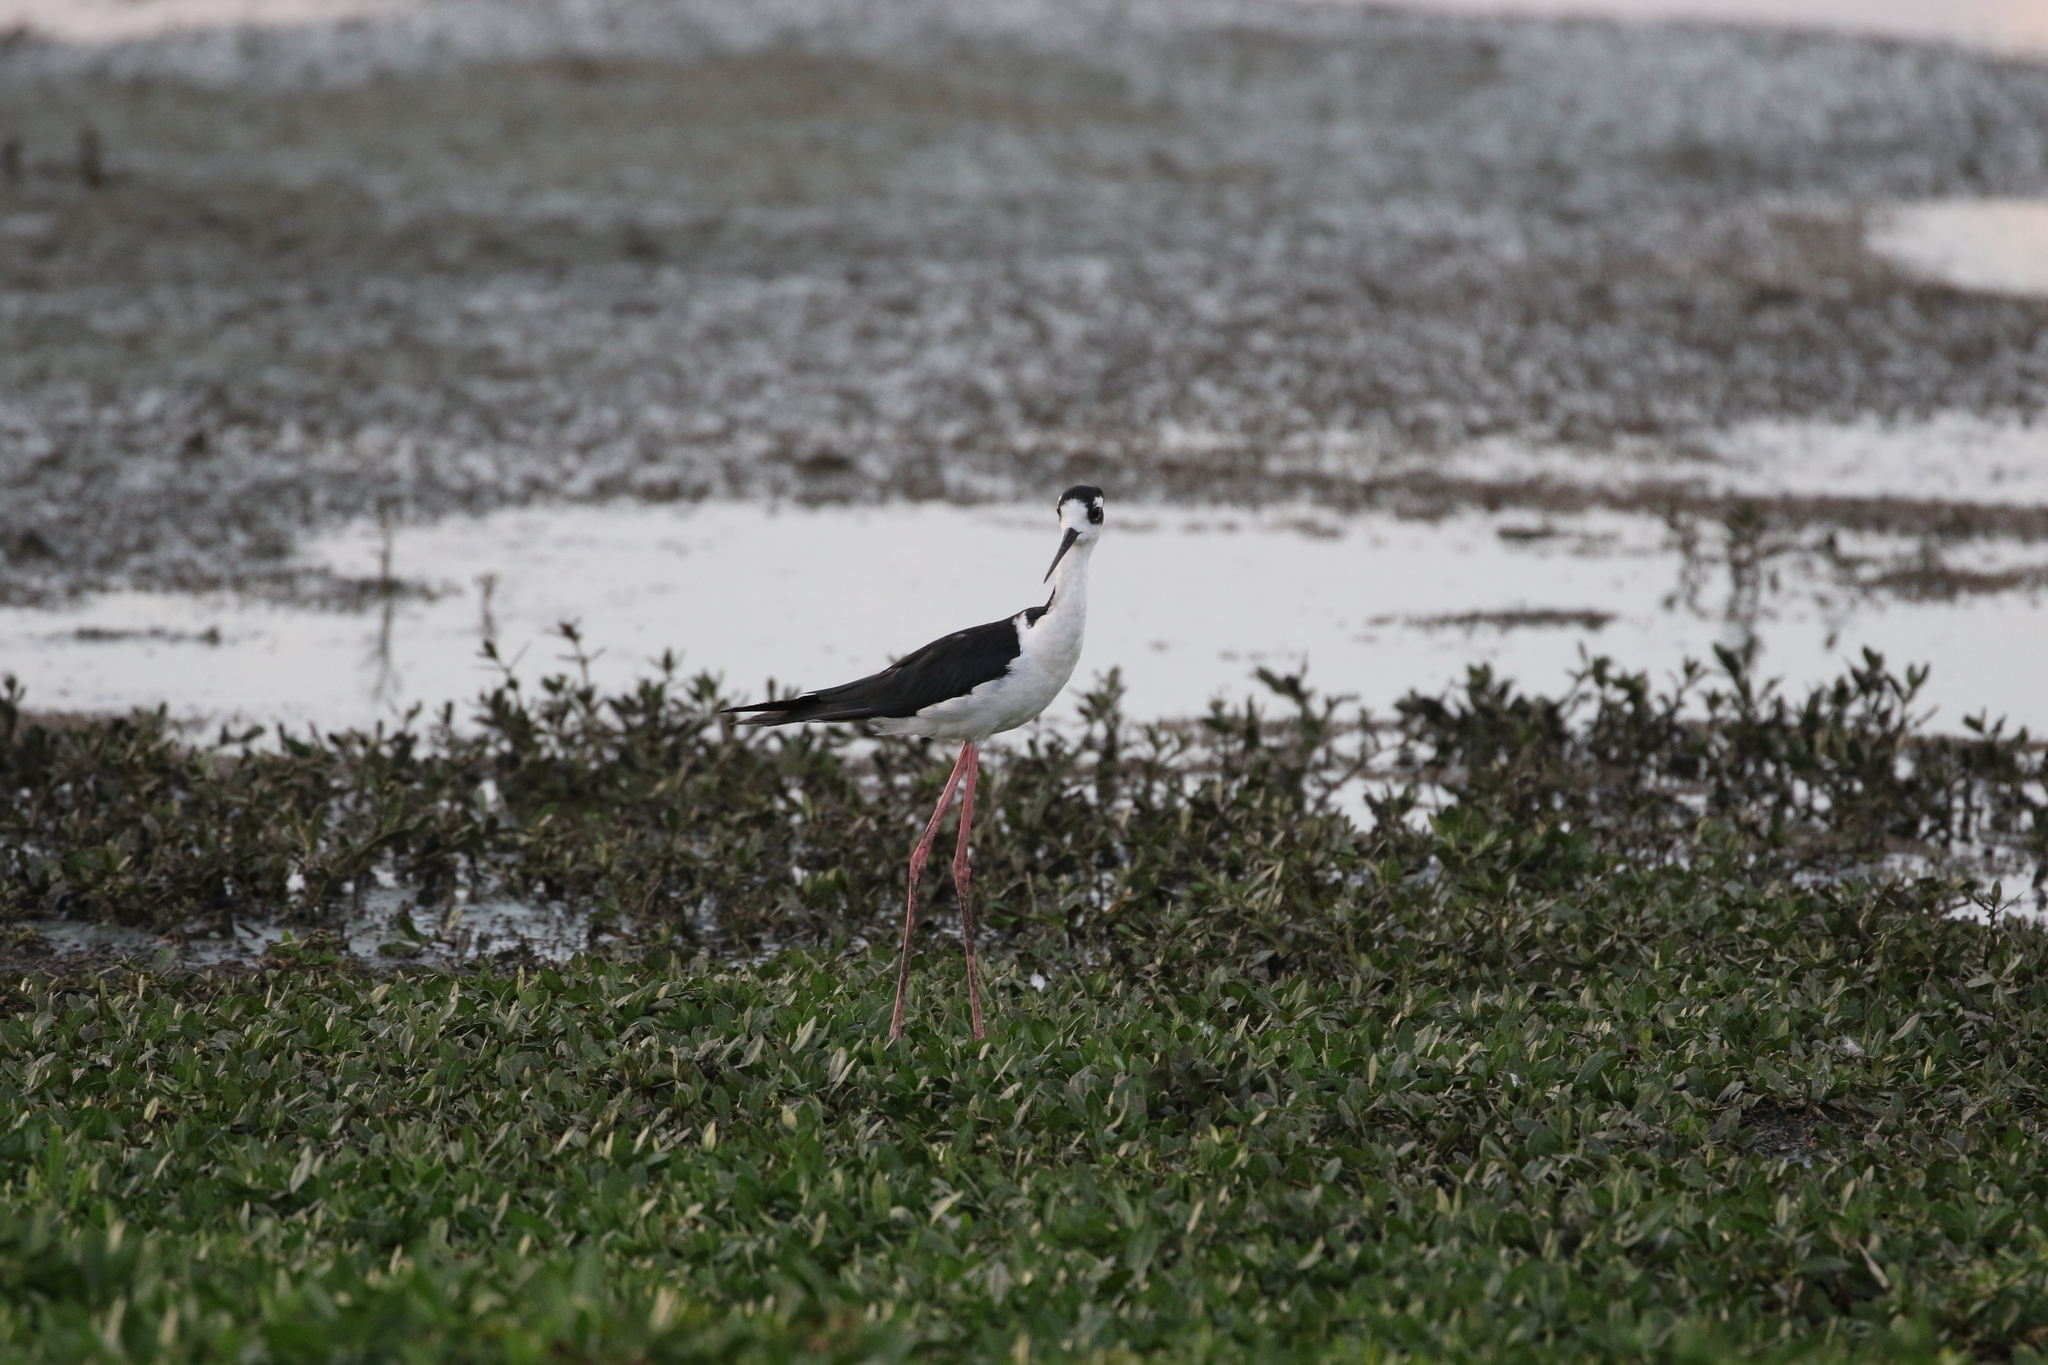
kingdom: Animalia
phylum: Chordata
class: Aves
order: Charadriiformes
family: Recurvirostridae
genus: Himantopus
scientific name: Himantopus mexicanus
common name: Black-necked stilt
